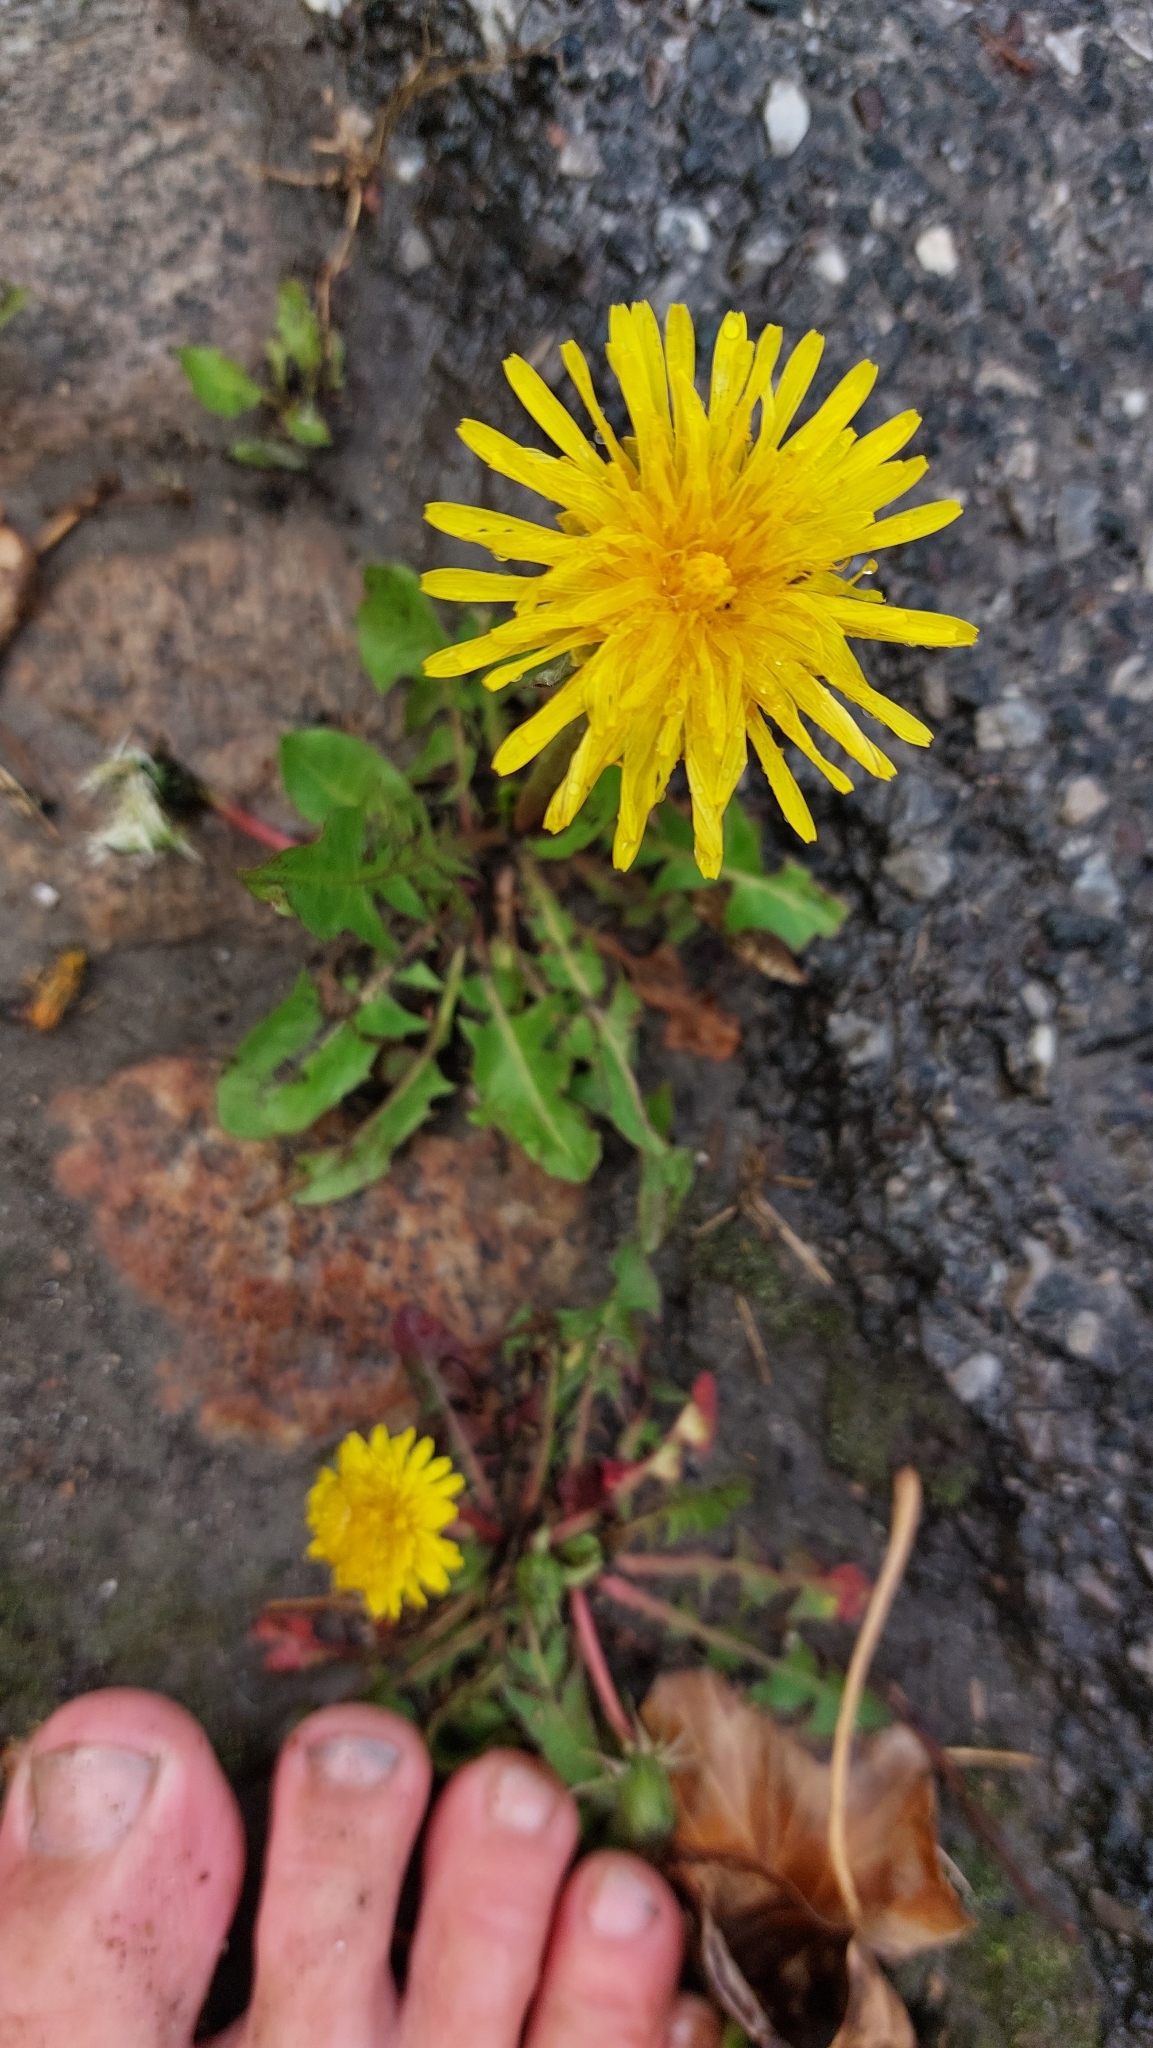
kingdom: Plantae
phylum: Tracheophyta
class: Magnoliopsida
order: Asterales
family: Asteraceae
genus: Taraxacum
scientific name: Taraxacum
